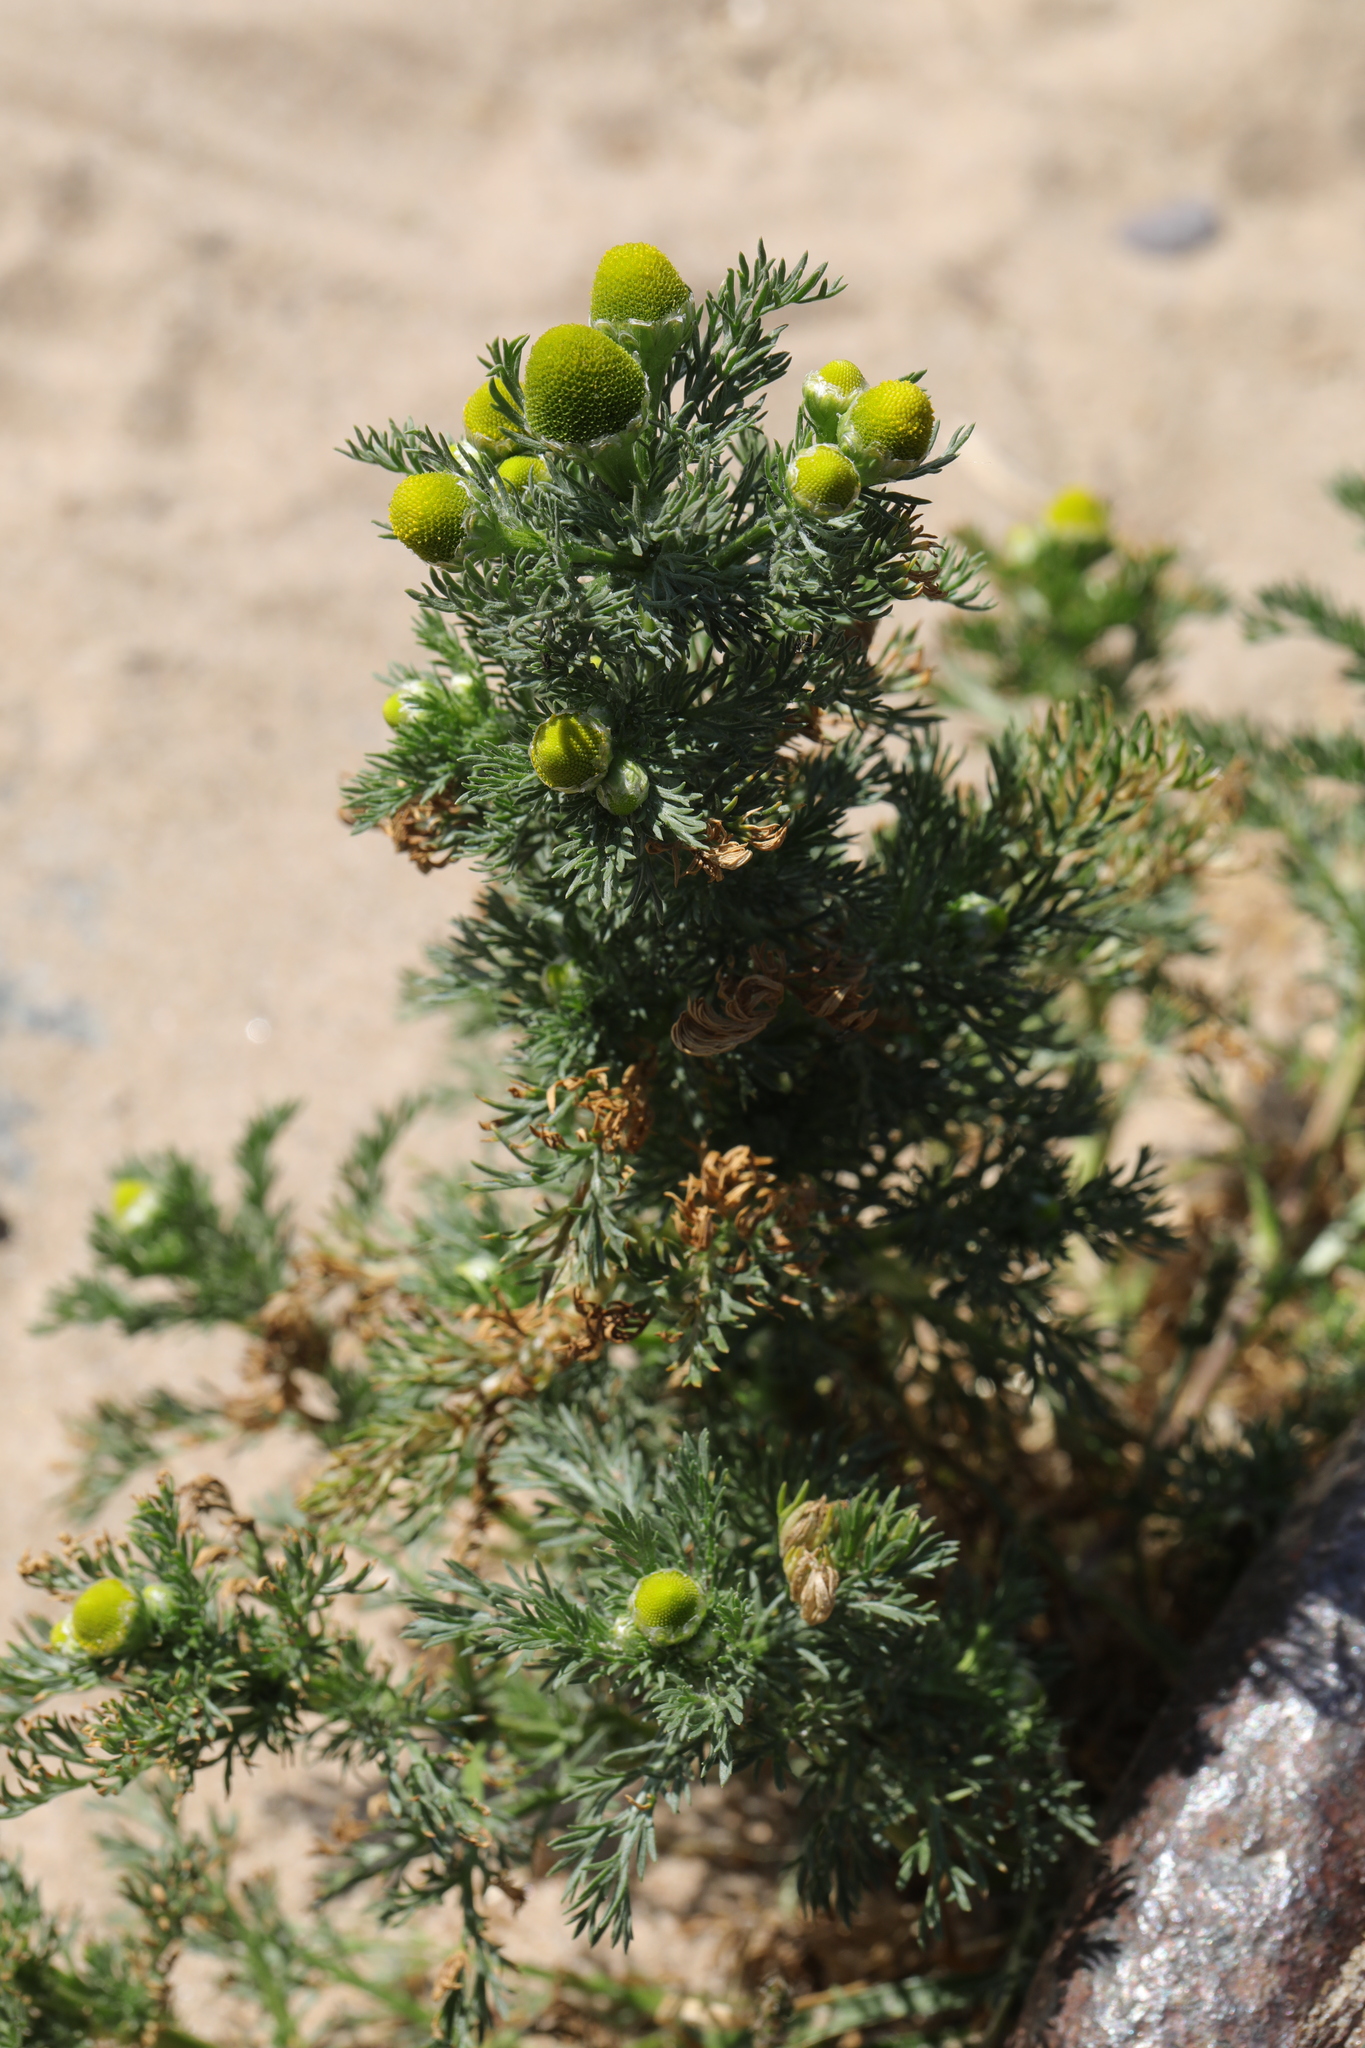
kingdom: Plantae
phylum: Tracheophyta
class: Magnoliopsida
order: Asterales
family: Asteraceae
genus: Matricaria
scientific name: Matricaria discoidea
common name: Disc mayweed
